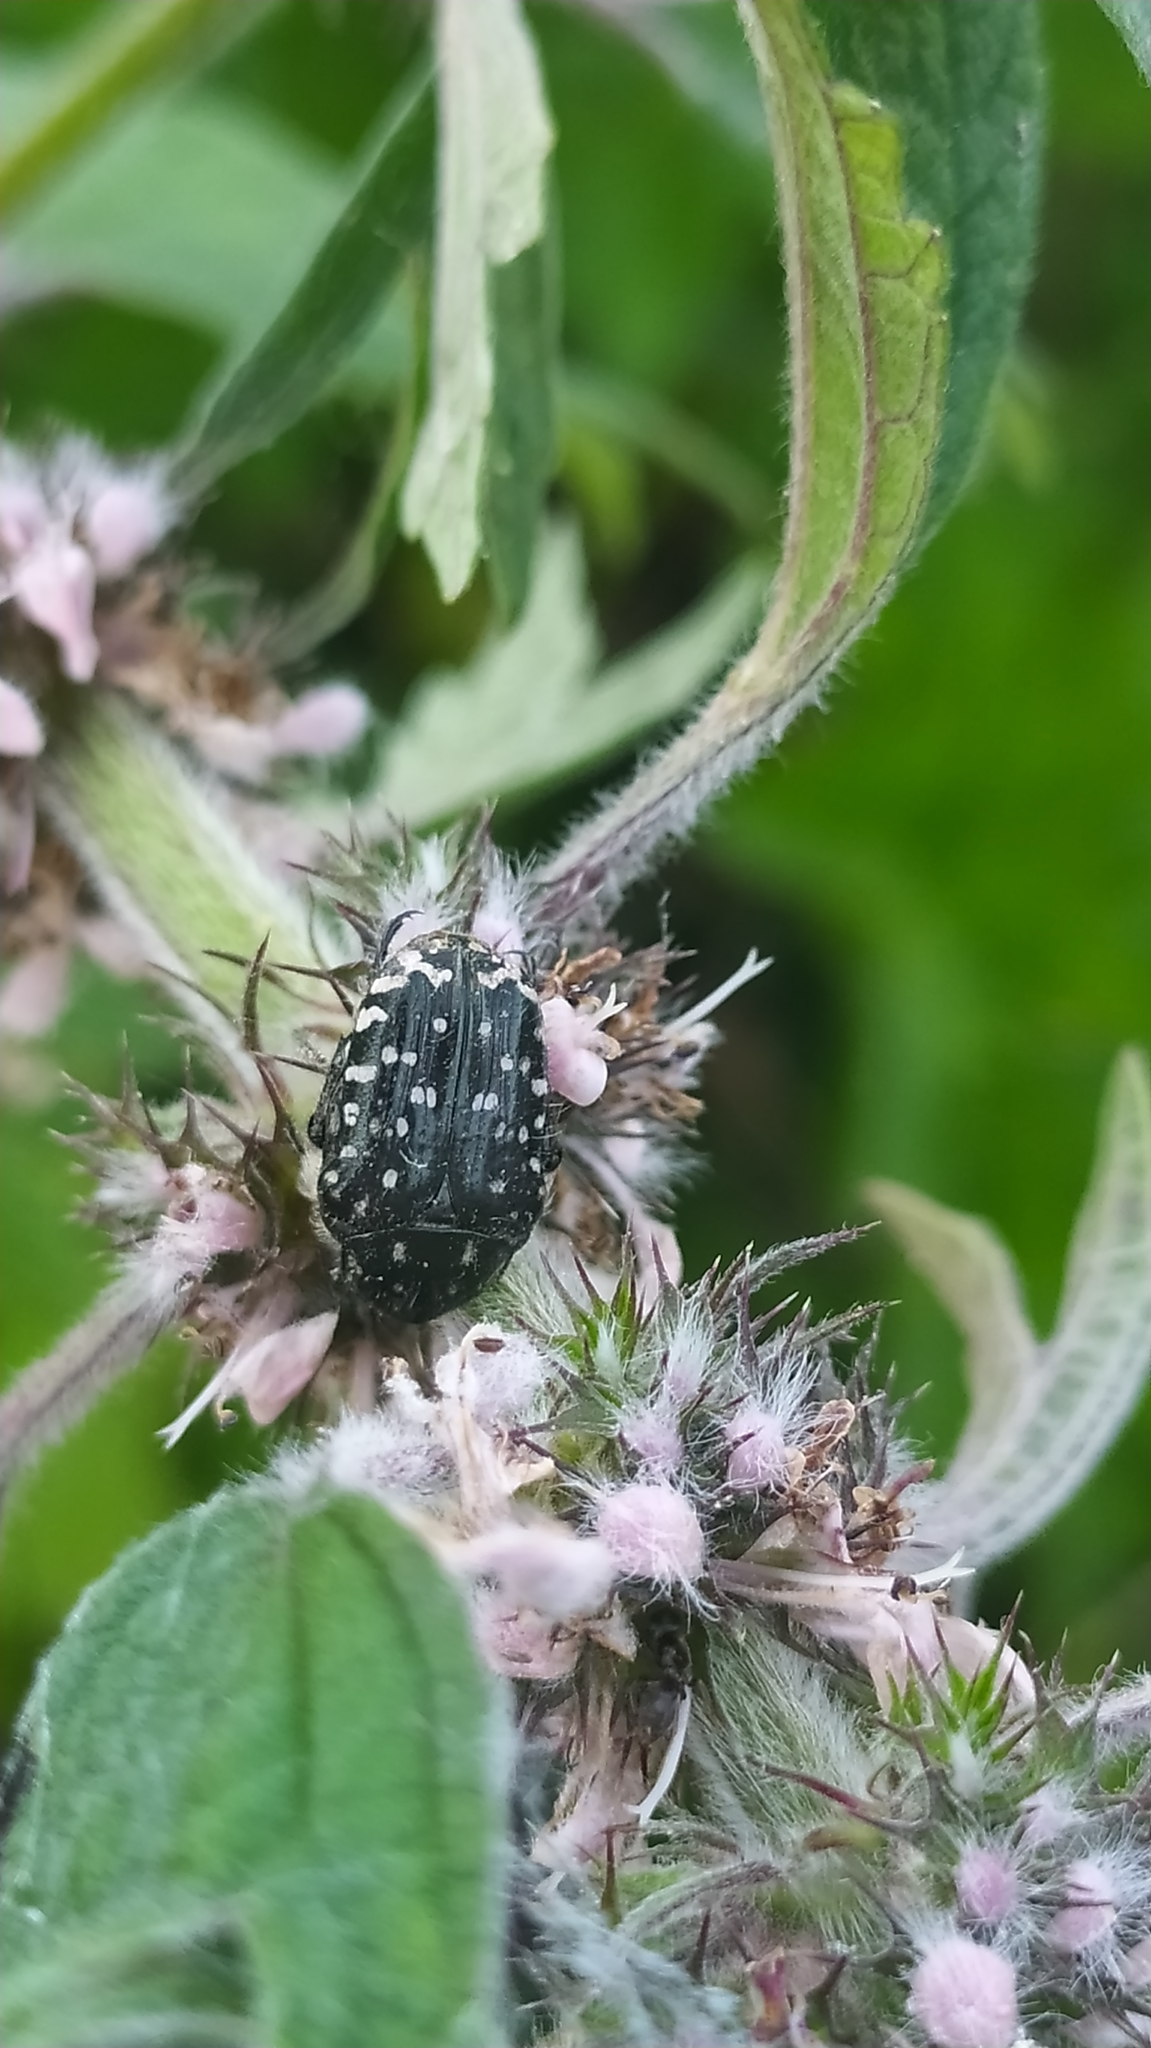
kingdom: Animalia
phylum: Arthropoda
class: Insecta
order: Coleoptera
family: Scarabaeidae
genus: Oxythyrea
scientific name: Oxythyrea funesta
